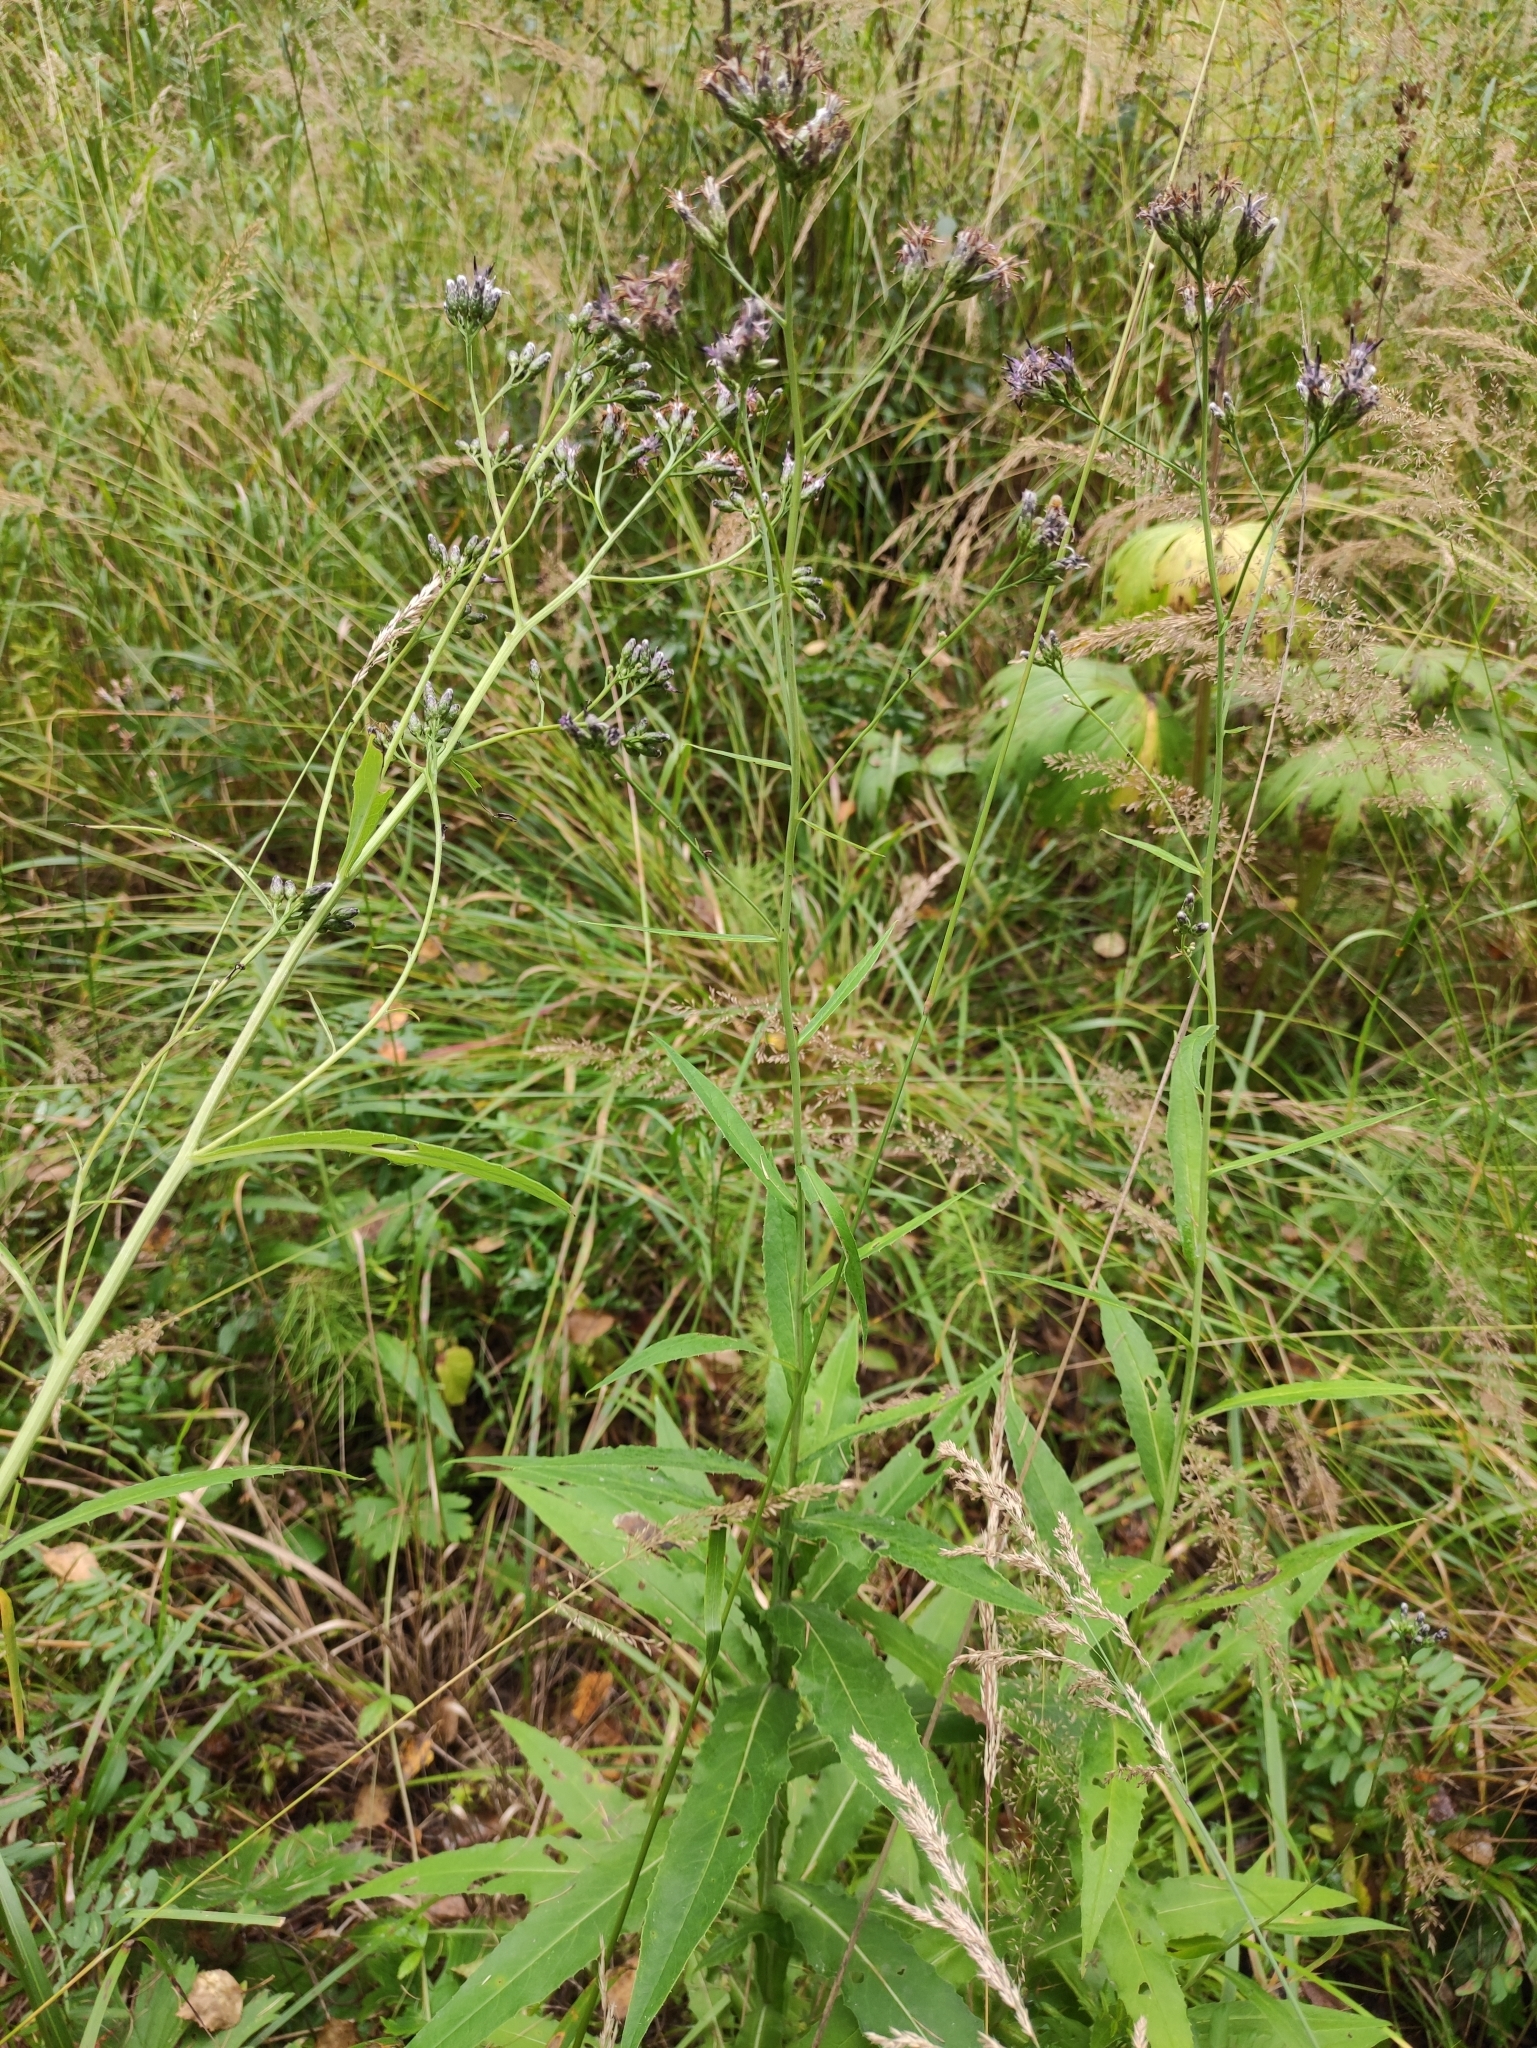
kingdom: Plantae
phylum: Tracheophyta
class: Magnoliopsida
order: Asterales
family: Asteraceae
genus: Saussurea
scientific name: Saussurea parviflora
